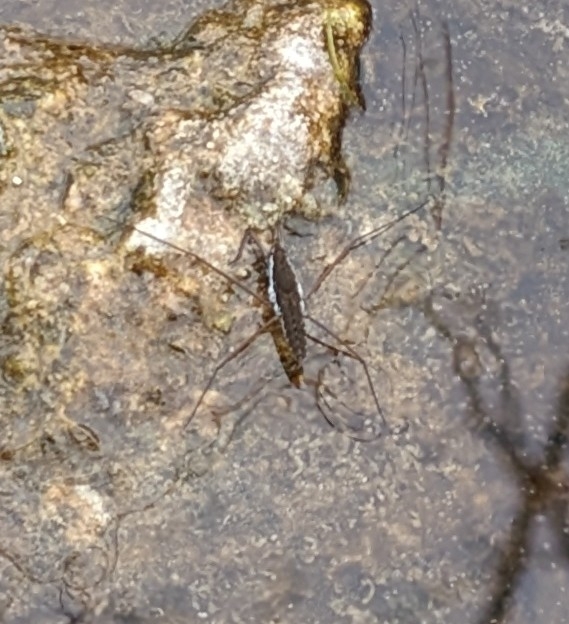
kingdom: Animalia
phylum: Arthropoda
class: Insecta
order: Hemiptera
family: Gerridae
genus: Aquarius
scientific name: Aquarius remigis
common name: Common water strider
